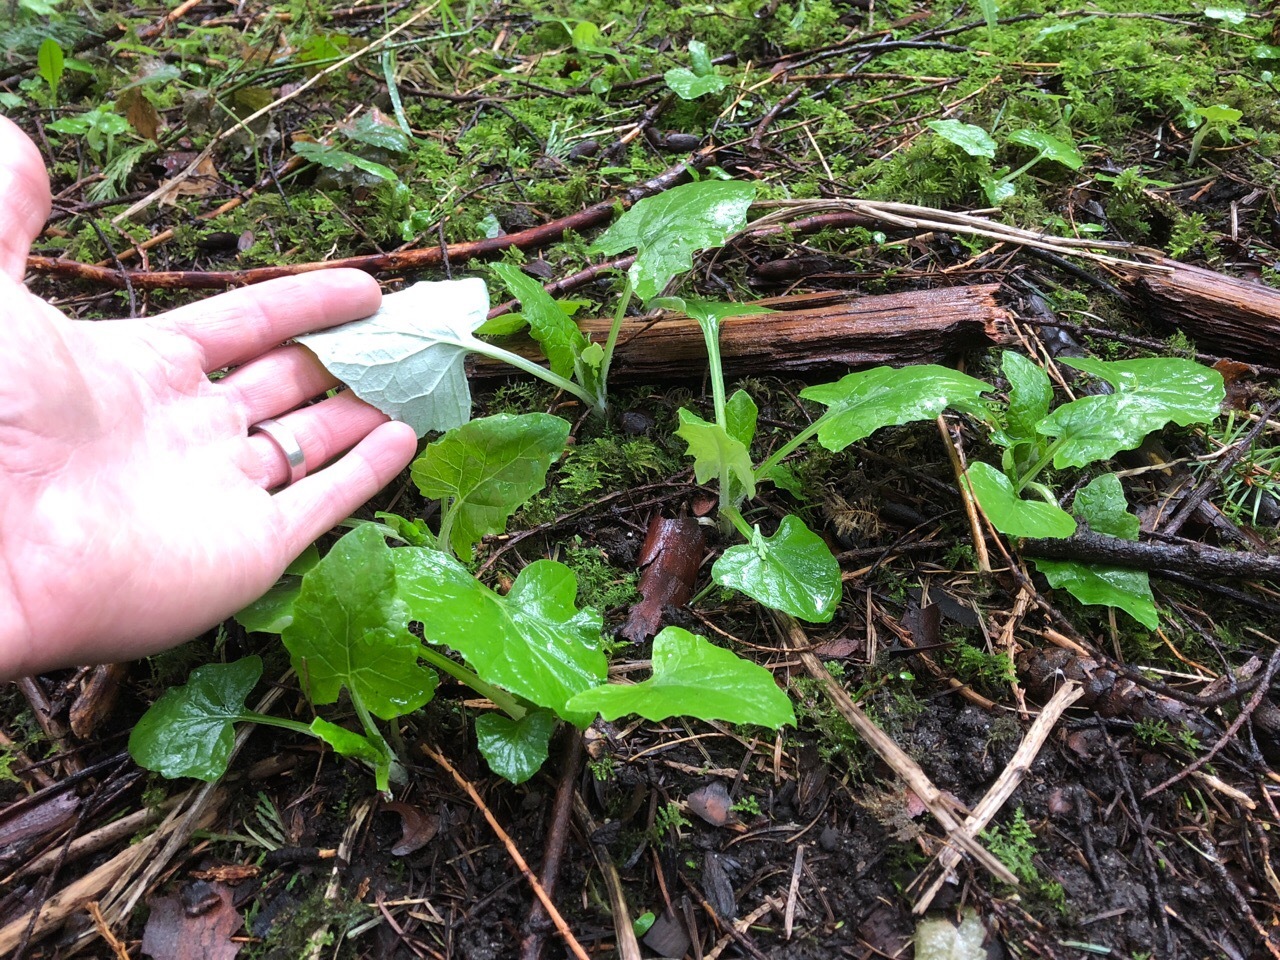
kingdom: Plantae
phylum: Tracheophyta
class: Magnoliopsida
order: Asterales
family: Asteraceae
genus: Adenocaulon
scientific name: Adenocaulon bicolor
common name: Trailplant
